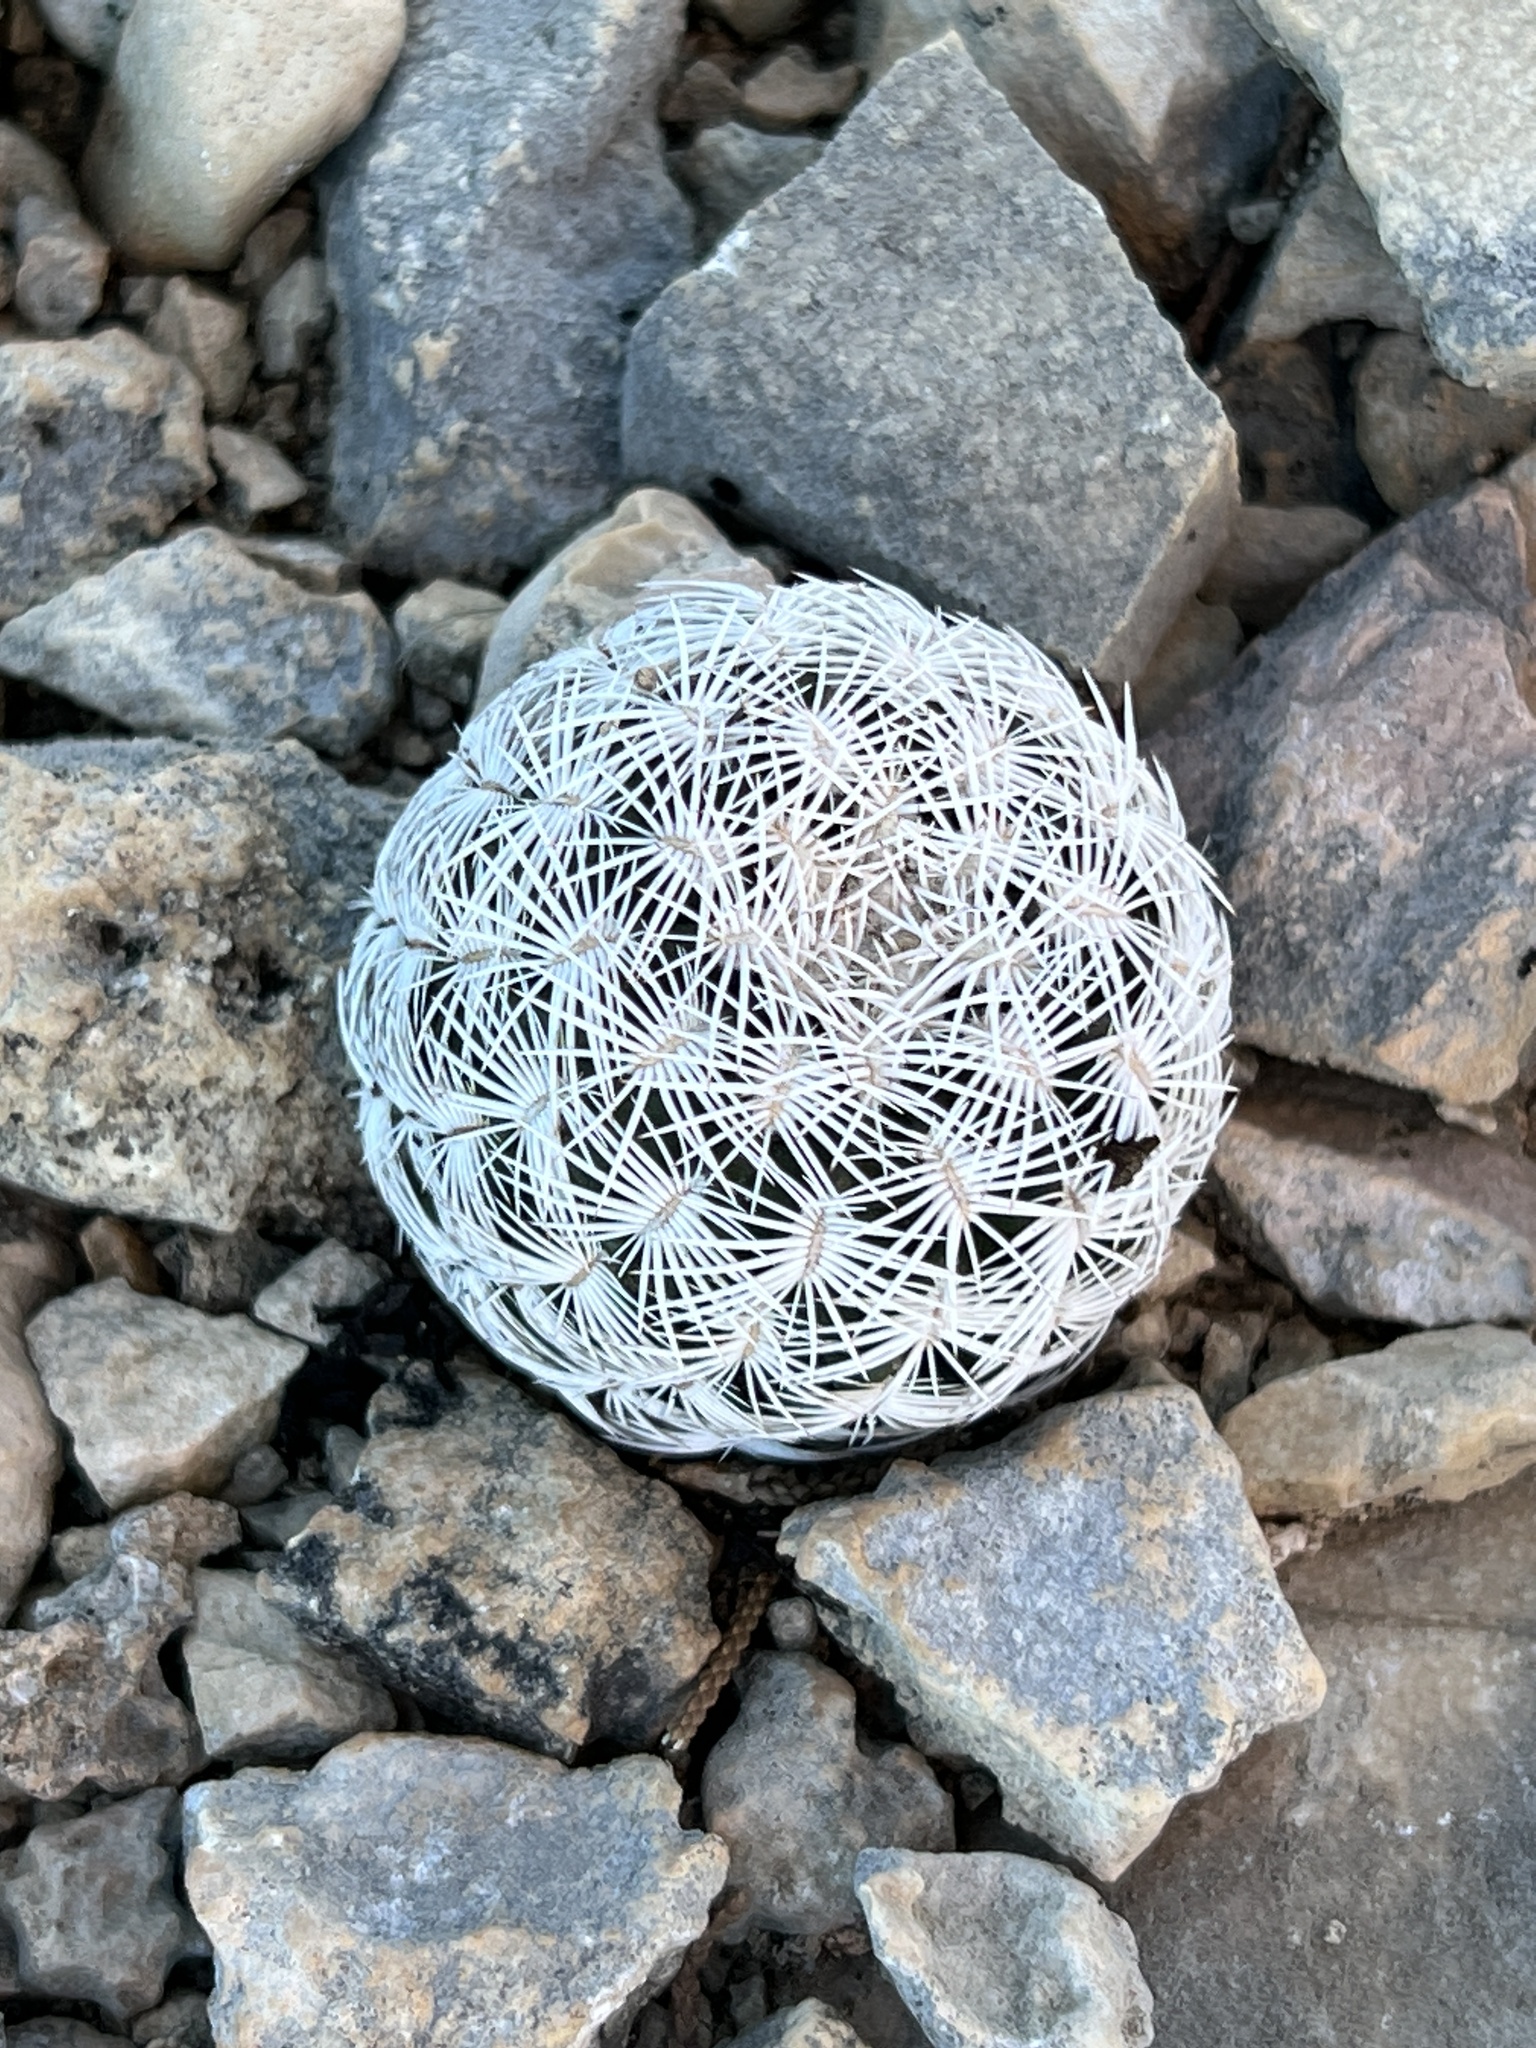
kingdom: Plantae
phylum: Tracheophyta
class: Magnoliopsida
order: Caryophyllales
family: Cactaceae
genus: Echinocereus
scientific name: Echinocereus reichenbachii
